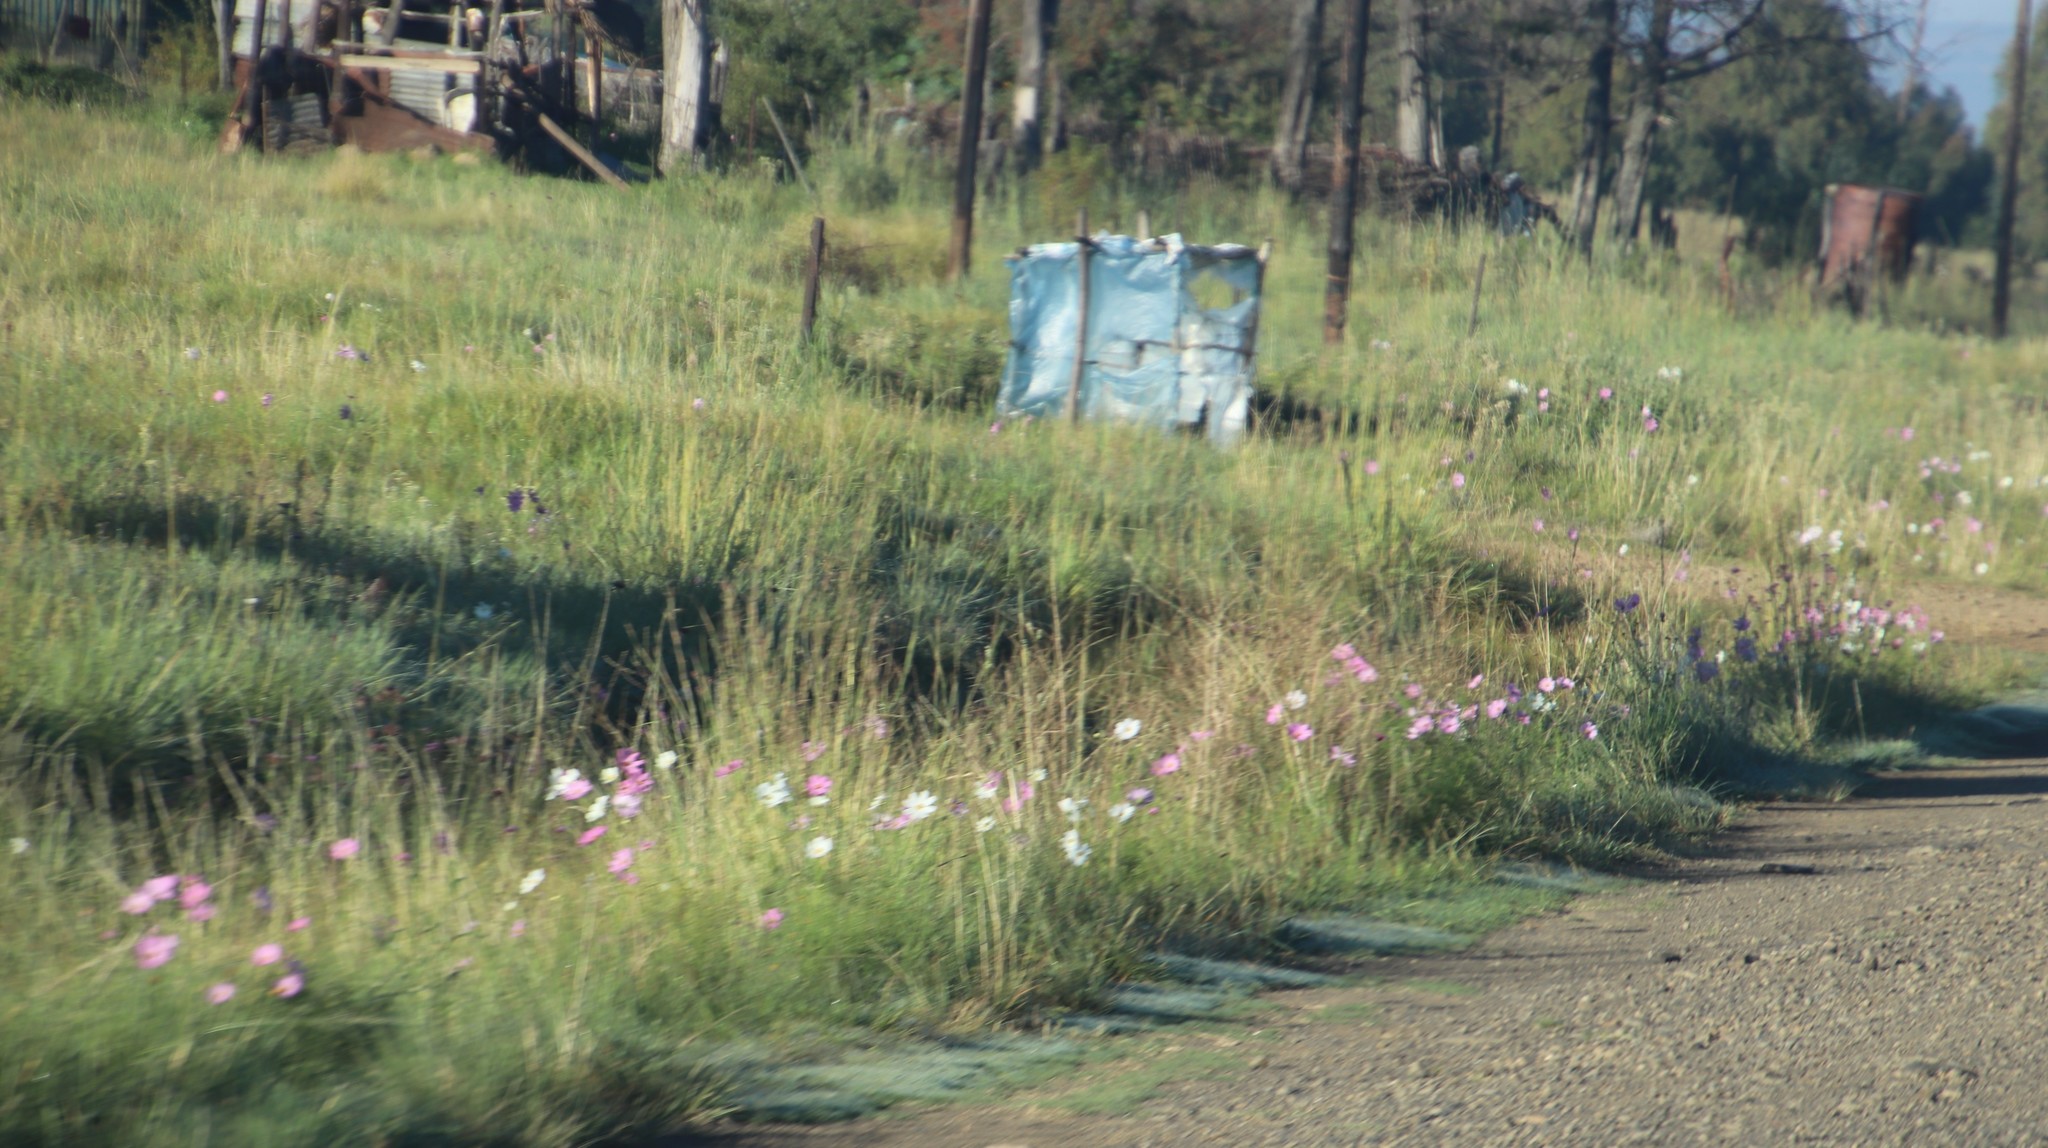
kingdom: Plantae
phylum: Tracheophyta
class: Magnoliopsida
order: Asterales
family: Asteraceae
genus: Cosmos
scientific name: Cosmos bipinnatus
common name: Garden cosmos
